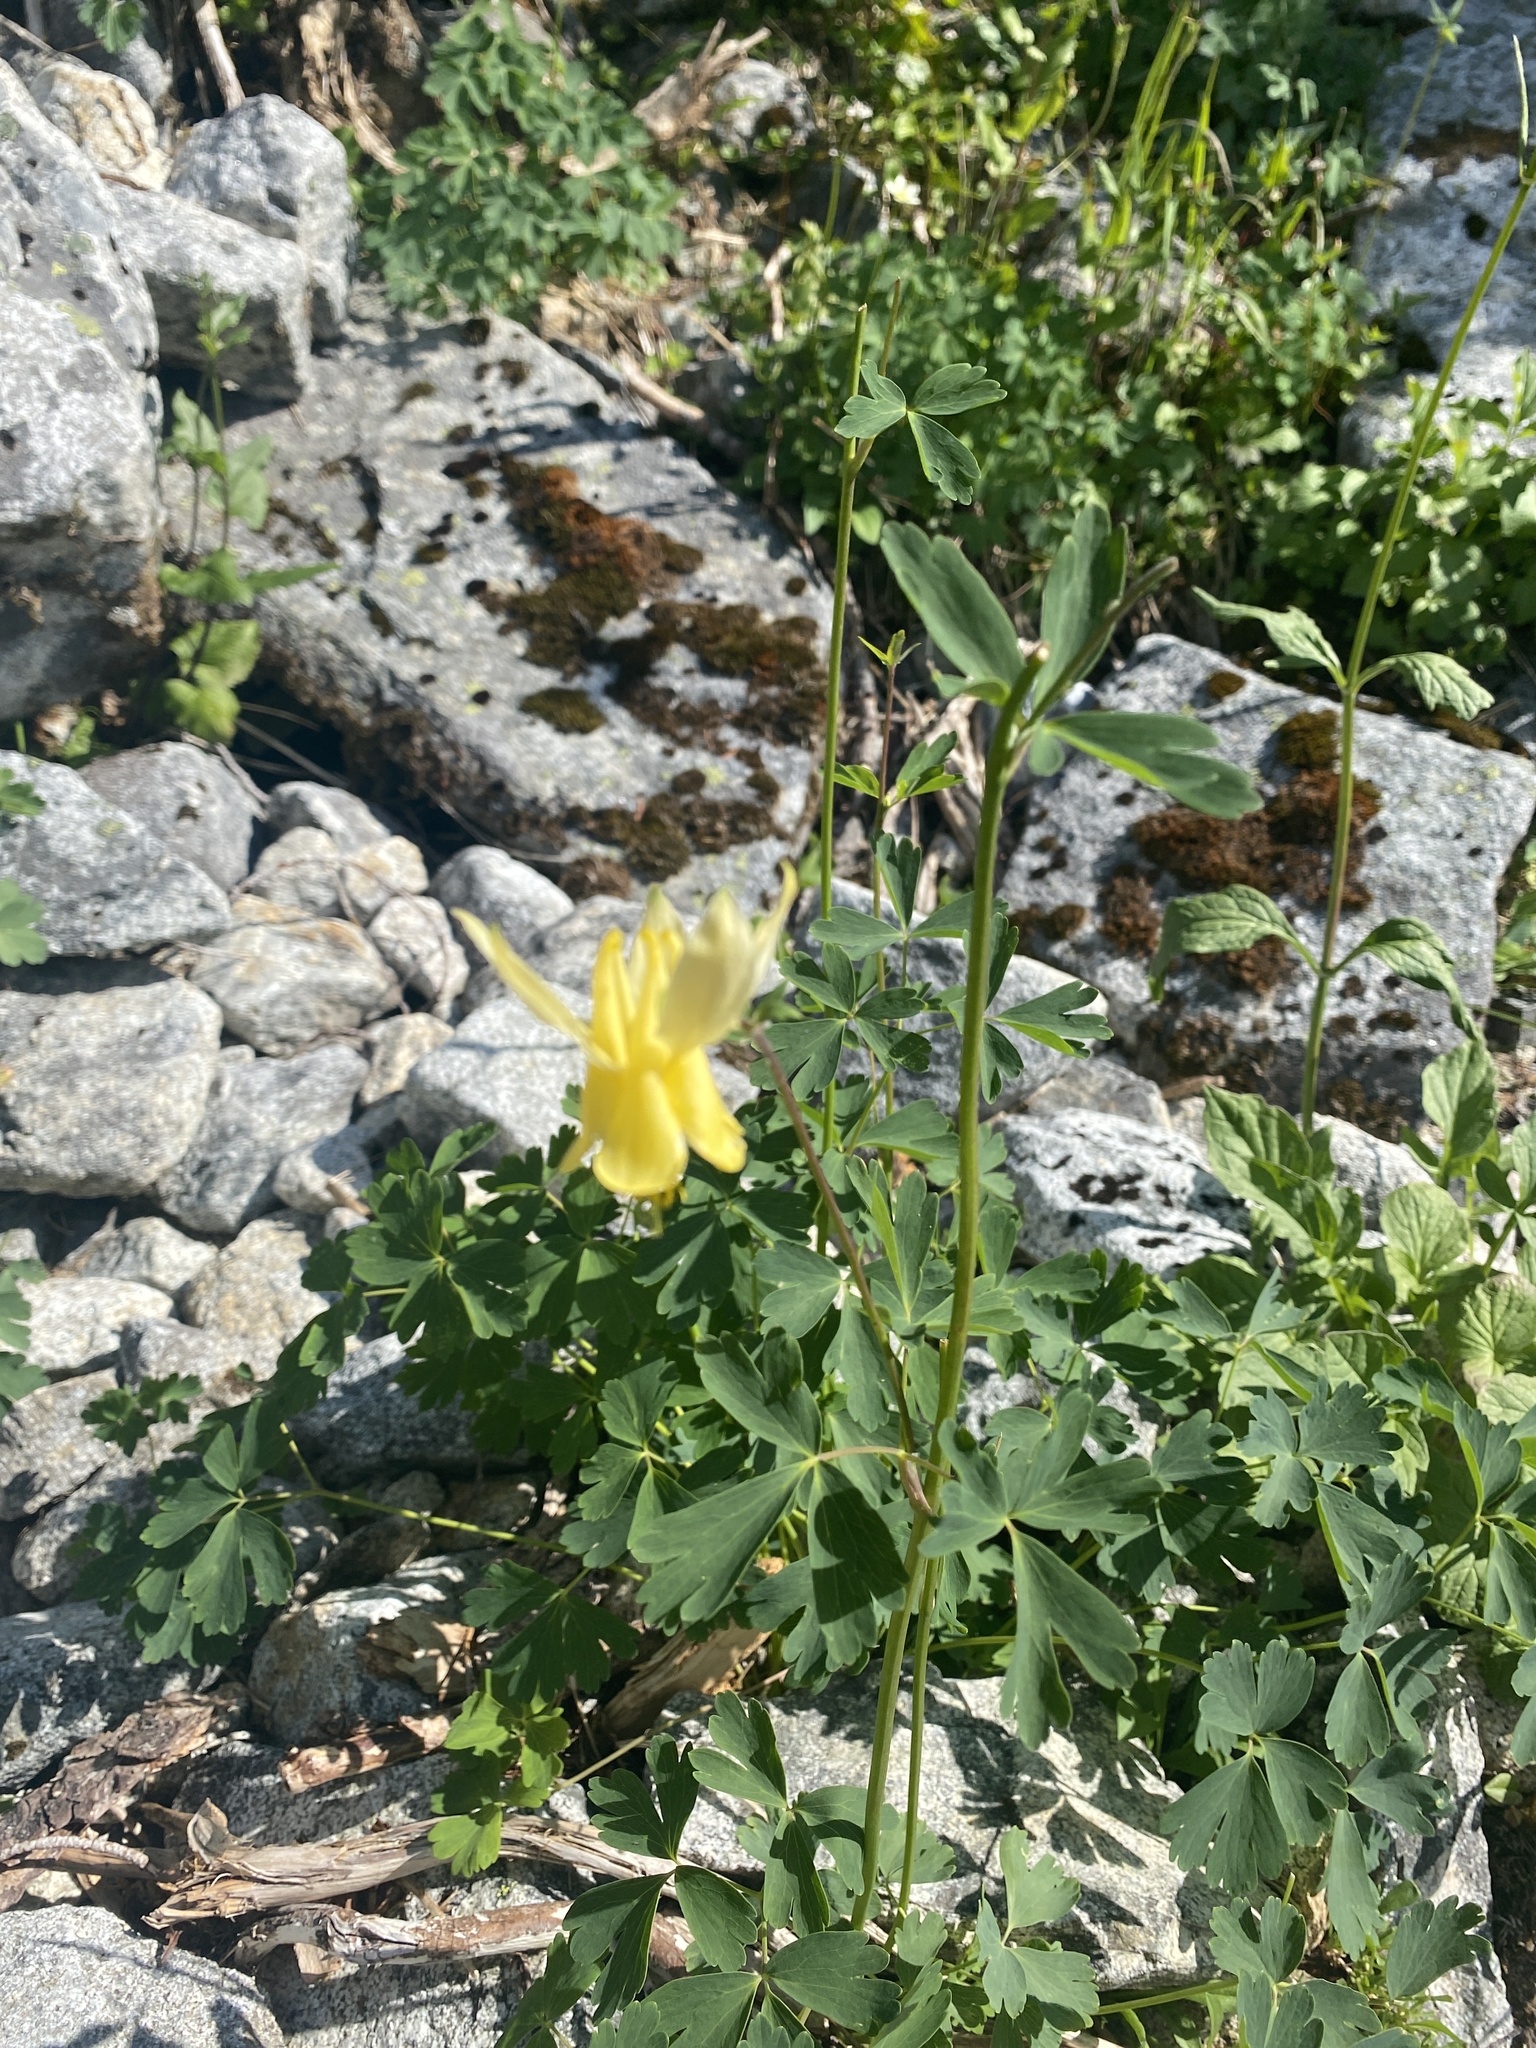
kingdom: Plantae
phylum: Tracheophyta
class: Magnoliopsida
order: Ranunculales
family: Ranunculaceae
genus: Aquilegia
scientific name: Aquilegia flavescens
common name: Yellow columbine
